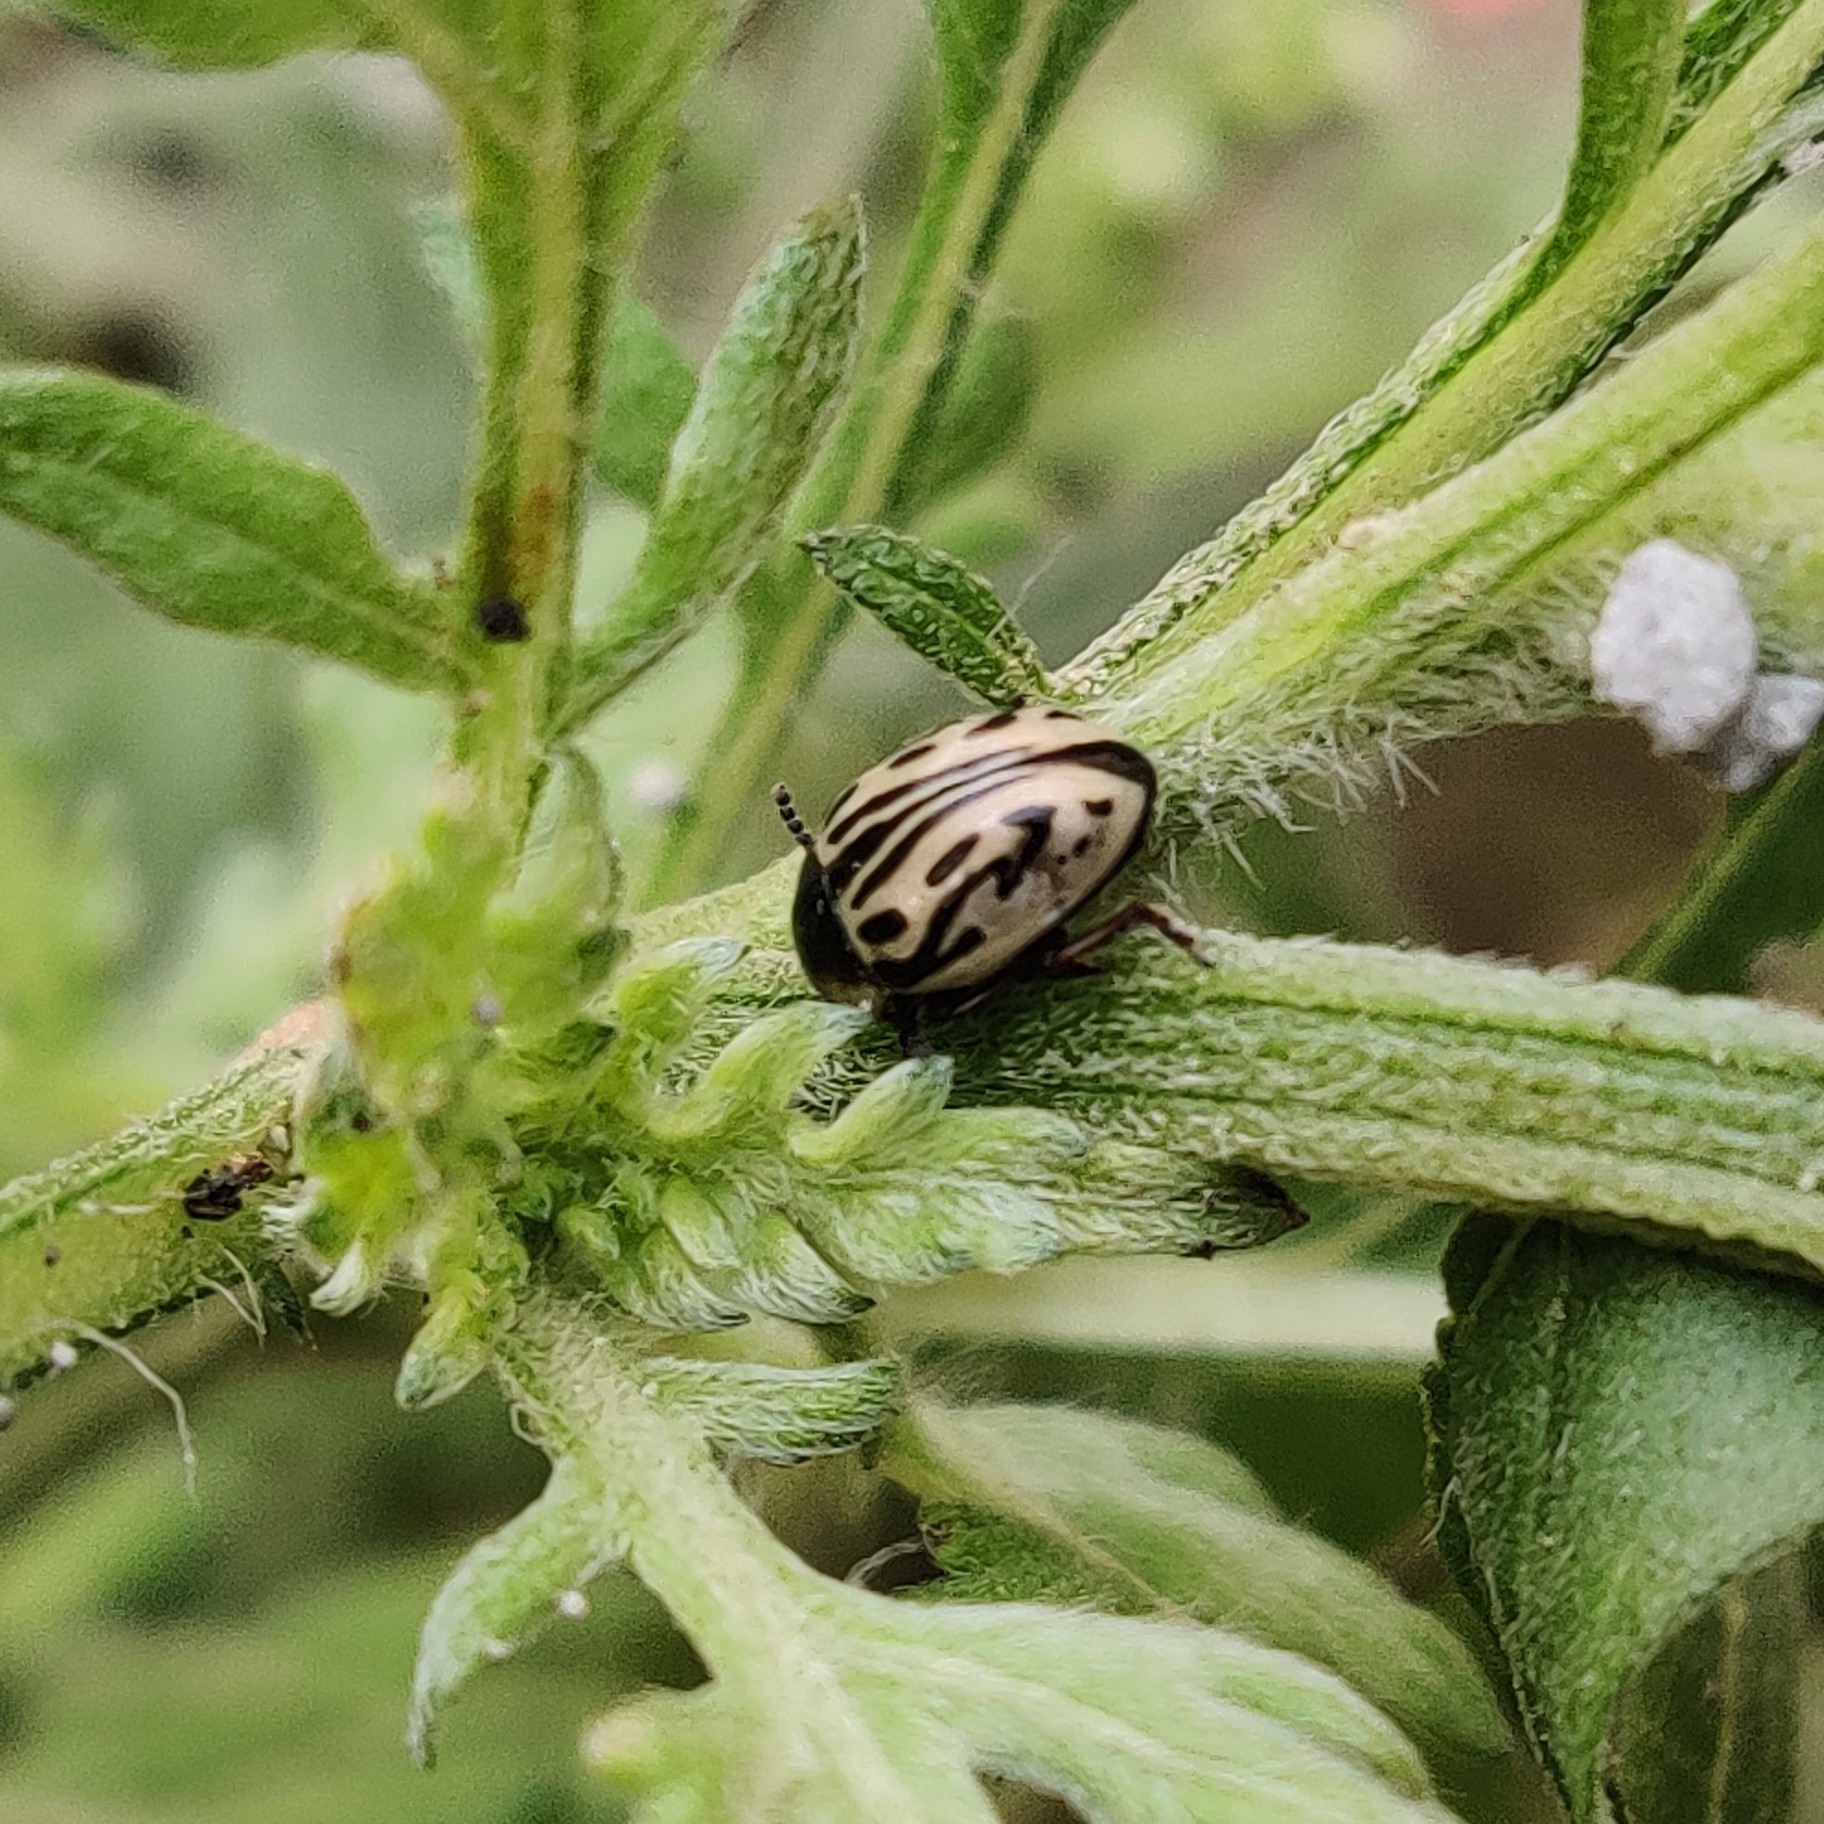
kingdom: Animalia
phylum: Arthropoda
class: Insecta
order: Coleoptera
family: Chrysomelidae
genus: Calligrapha
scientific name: Calligrapha
